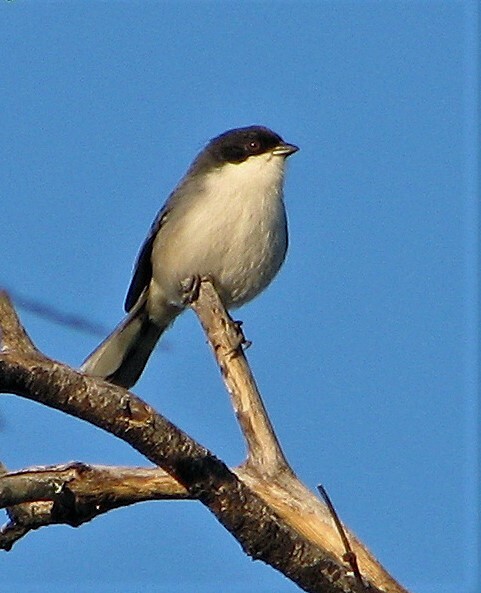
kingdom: Animalia
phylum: Chordata
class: Aves
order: Passeriformes
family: Thraupidae
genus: Microspingus
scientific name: Microspingus melanoleucus
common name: Black-capped warbling-finch
